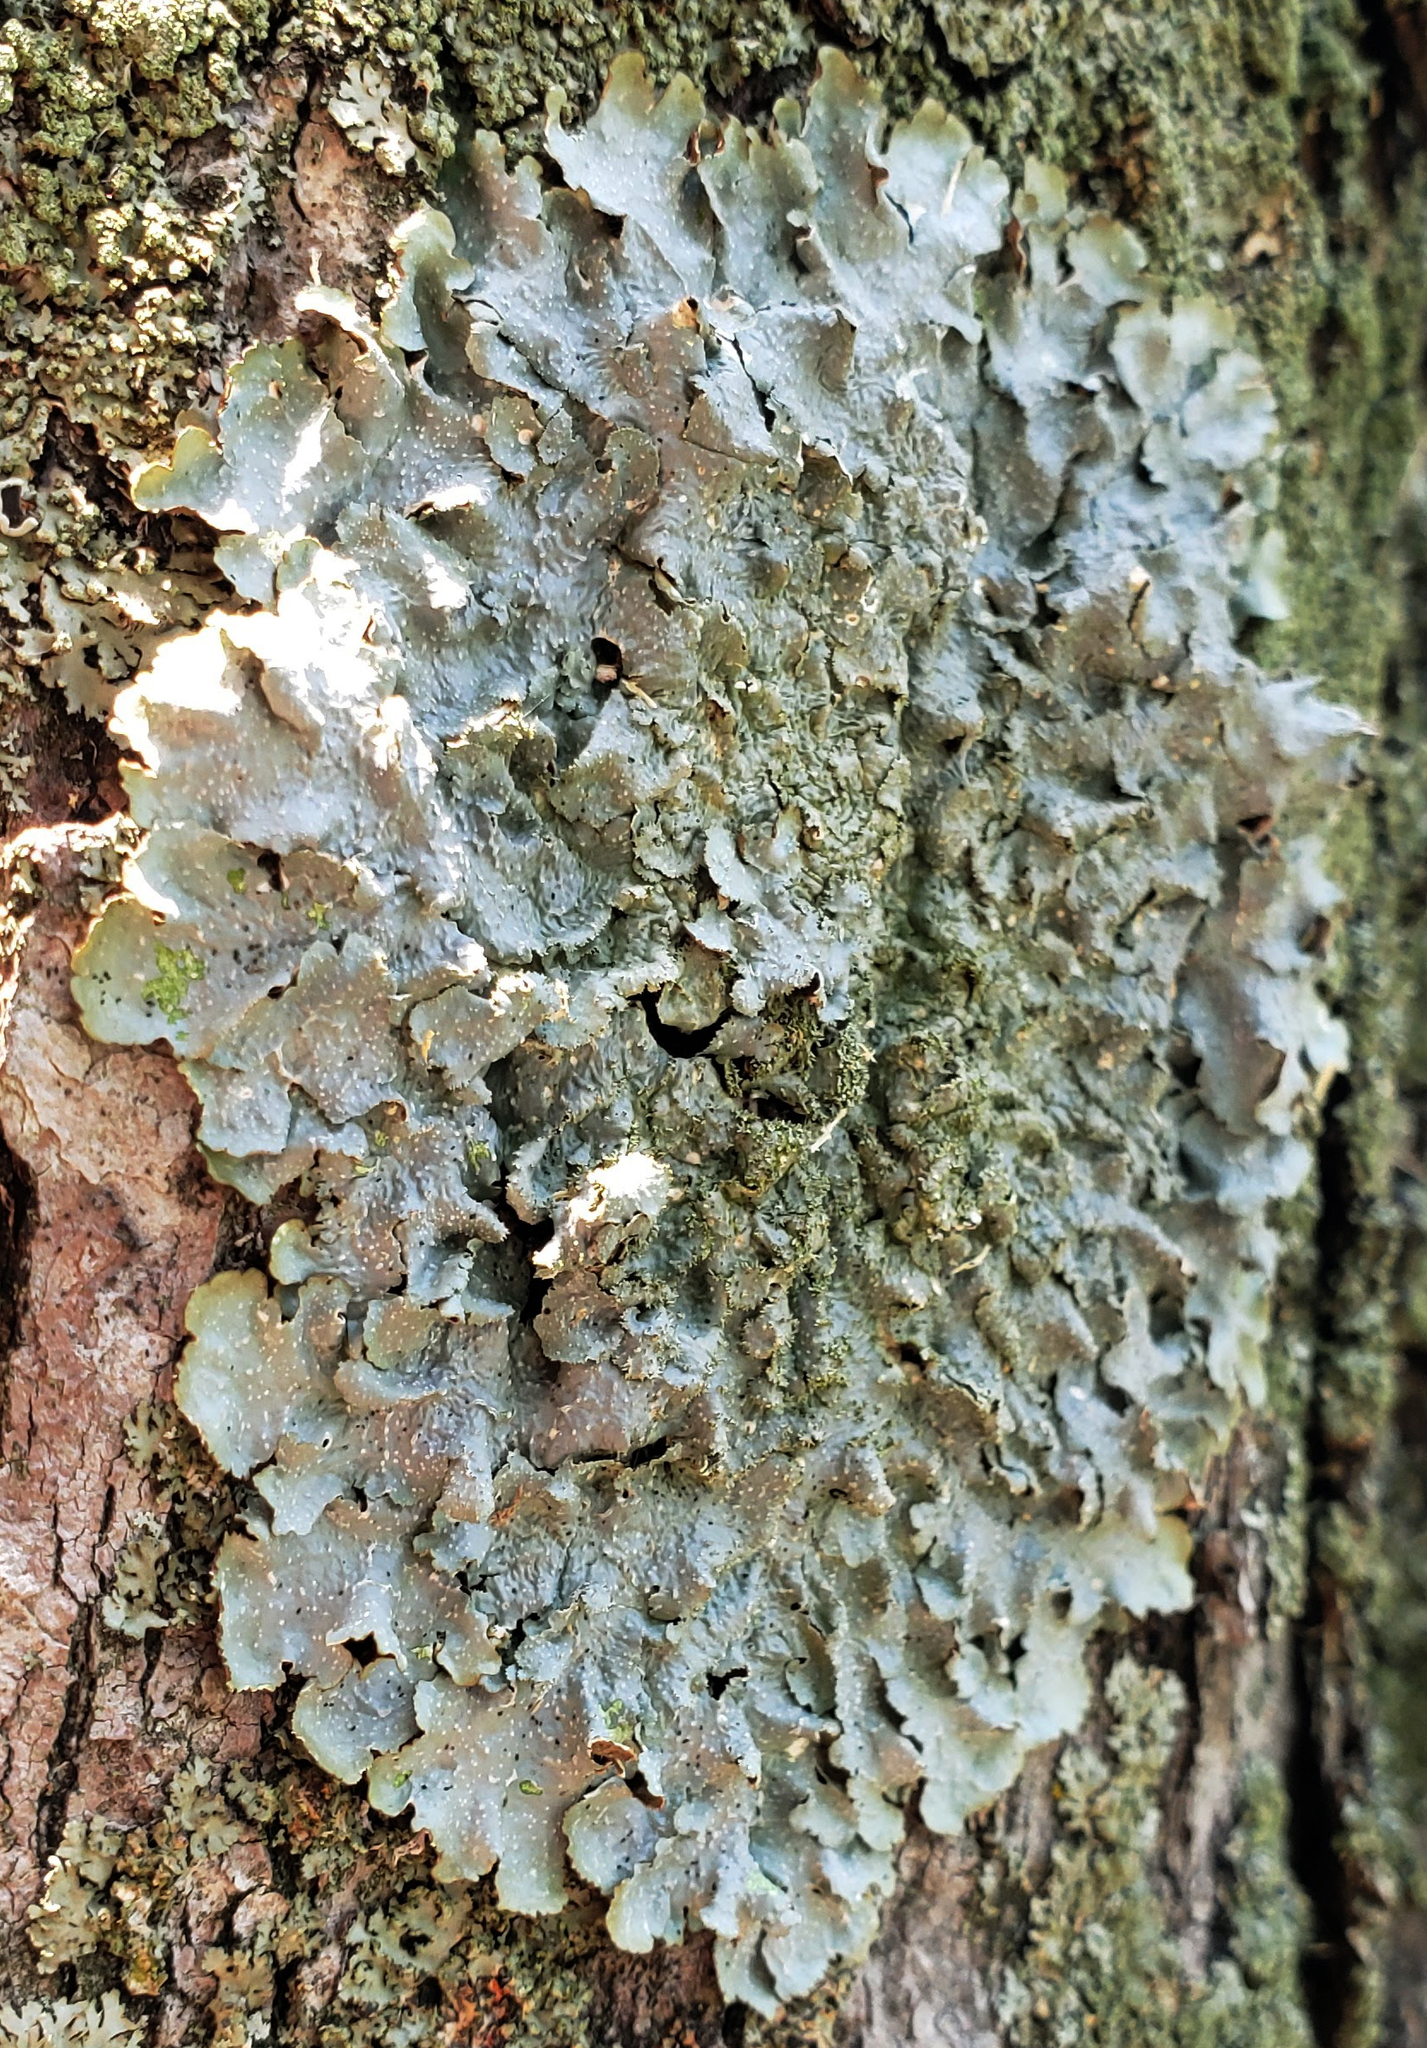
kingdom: Fungi
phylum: Ascomycota
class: Lecanoromycetes
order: Lecanorales
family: Parmeliaceae
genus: Punctelia
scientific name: Punctelia rudecta
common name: Rough speckled shield lichen
